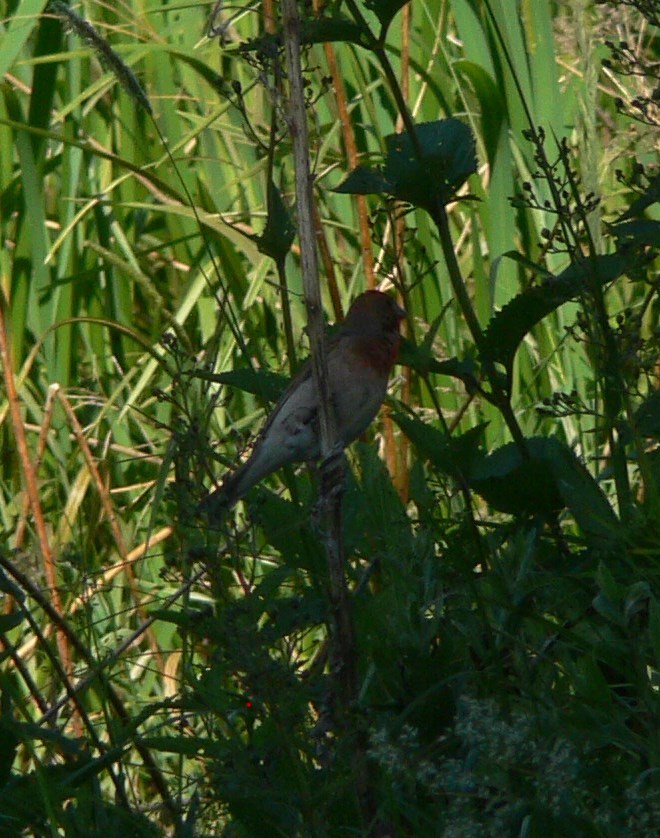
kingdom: Animalia
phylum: Chordata
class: Aves
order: Passeriformes
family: Fringillidae
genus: Carpodacus
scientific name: Carpodacus erythrinus
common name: Common rosefinch
